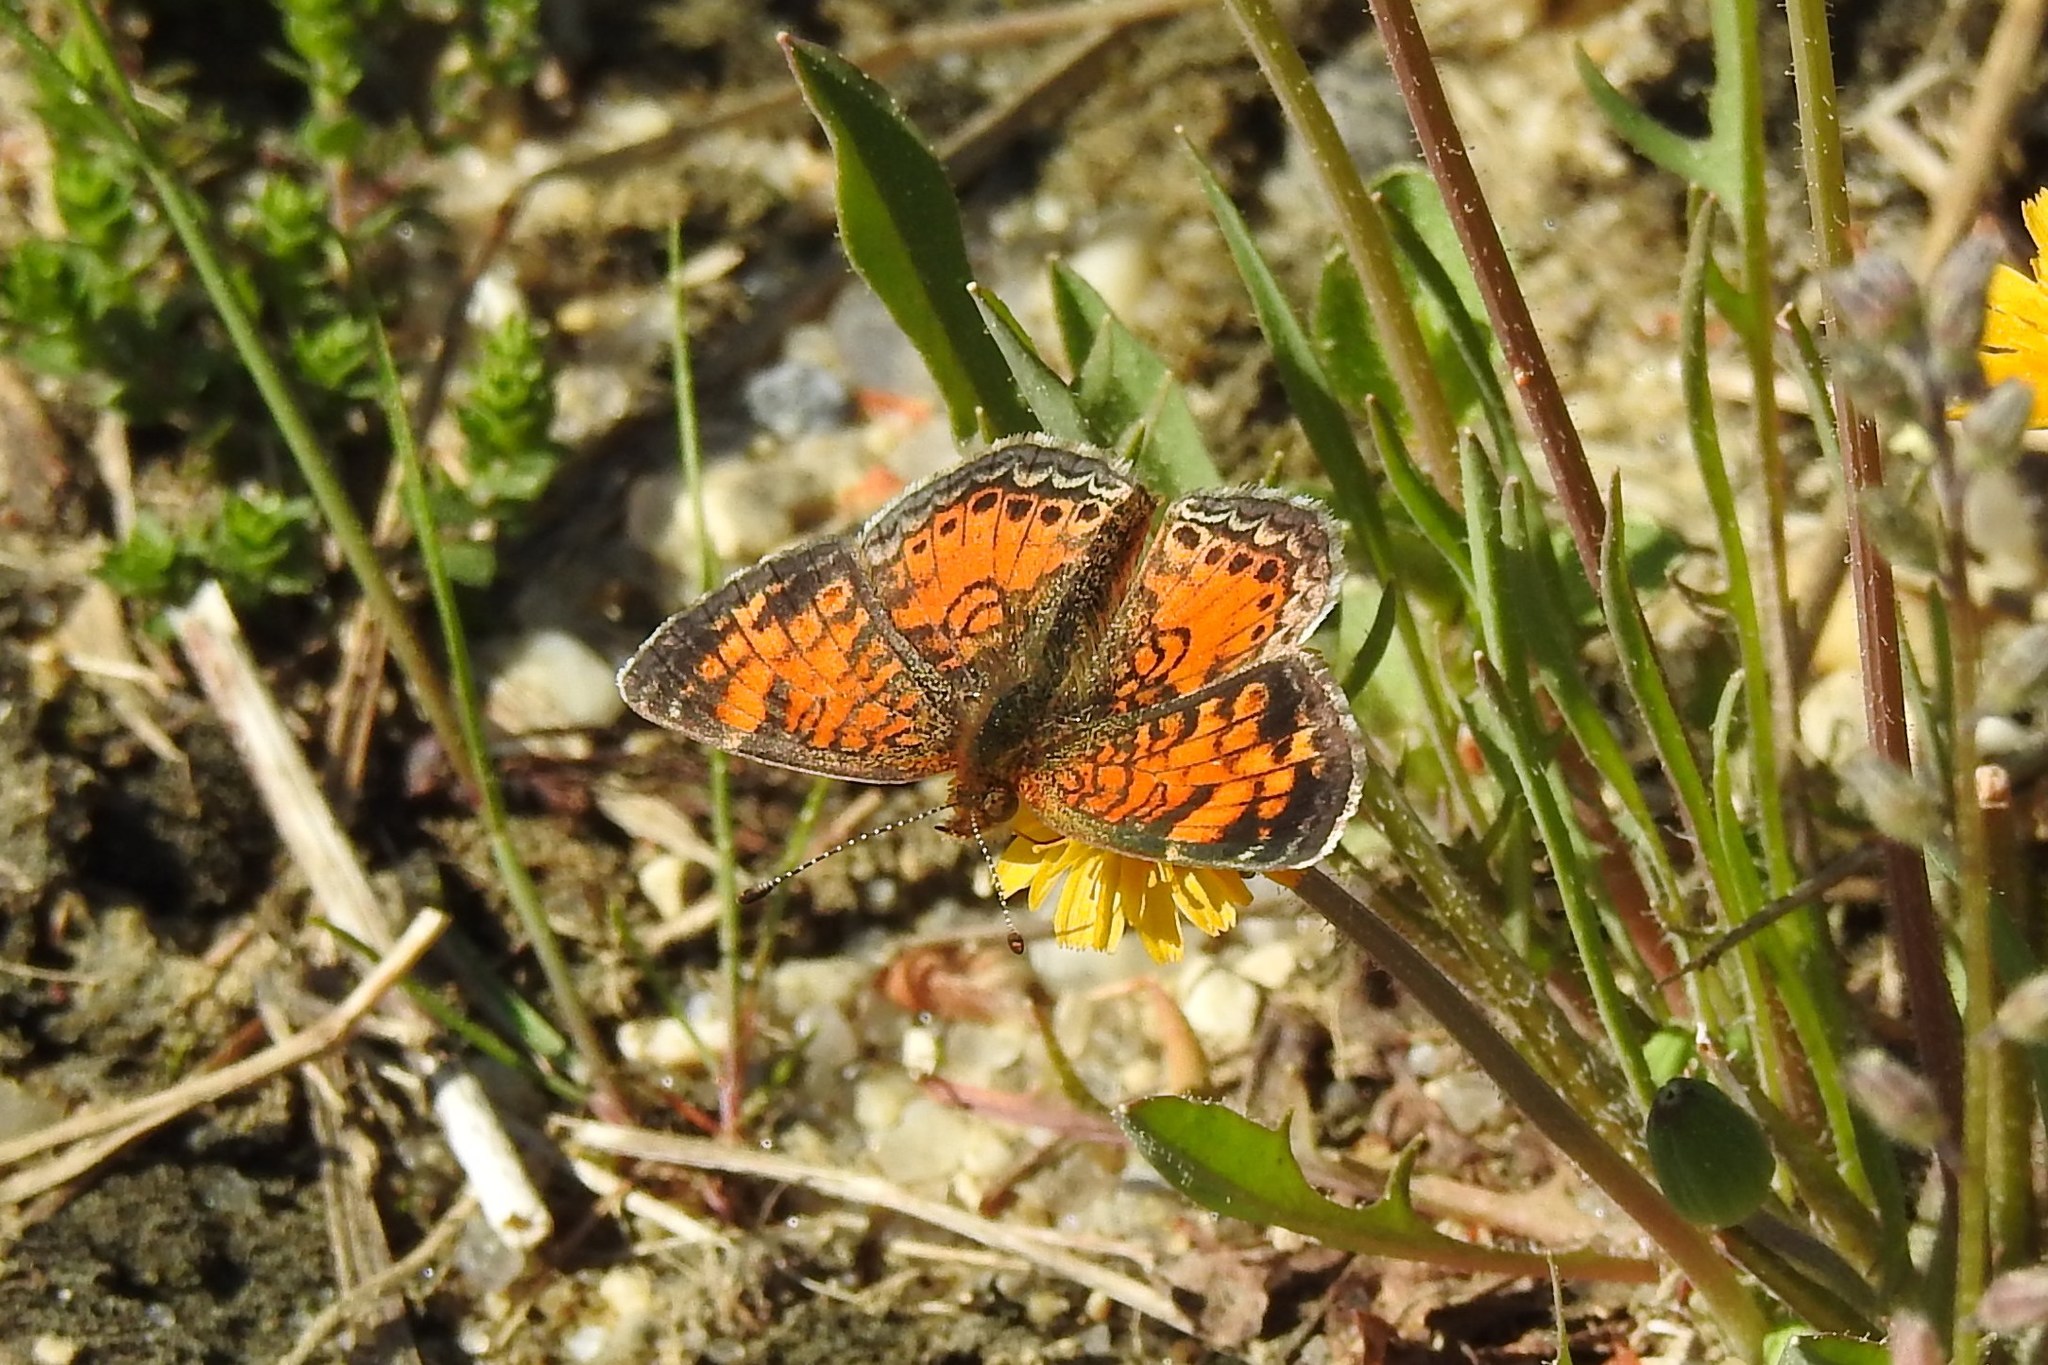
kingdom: Animalia
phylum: Arthropoda
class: Insecta
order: Lepidoptera
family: Nymphalidae
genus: Phyciodes
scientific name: Phyciodes tharos
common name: Pearl crescent
